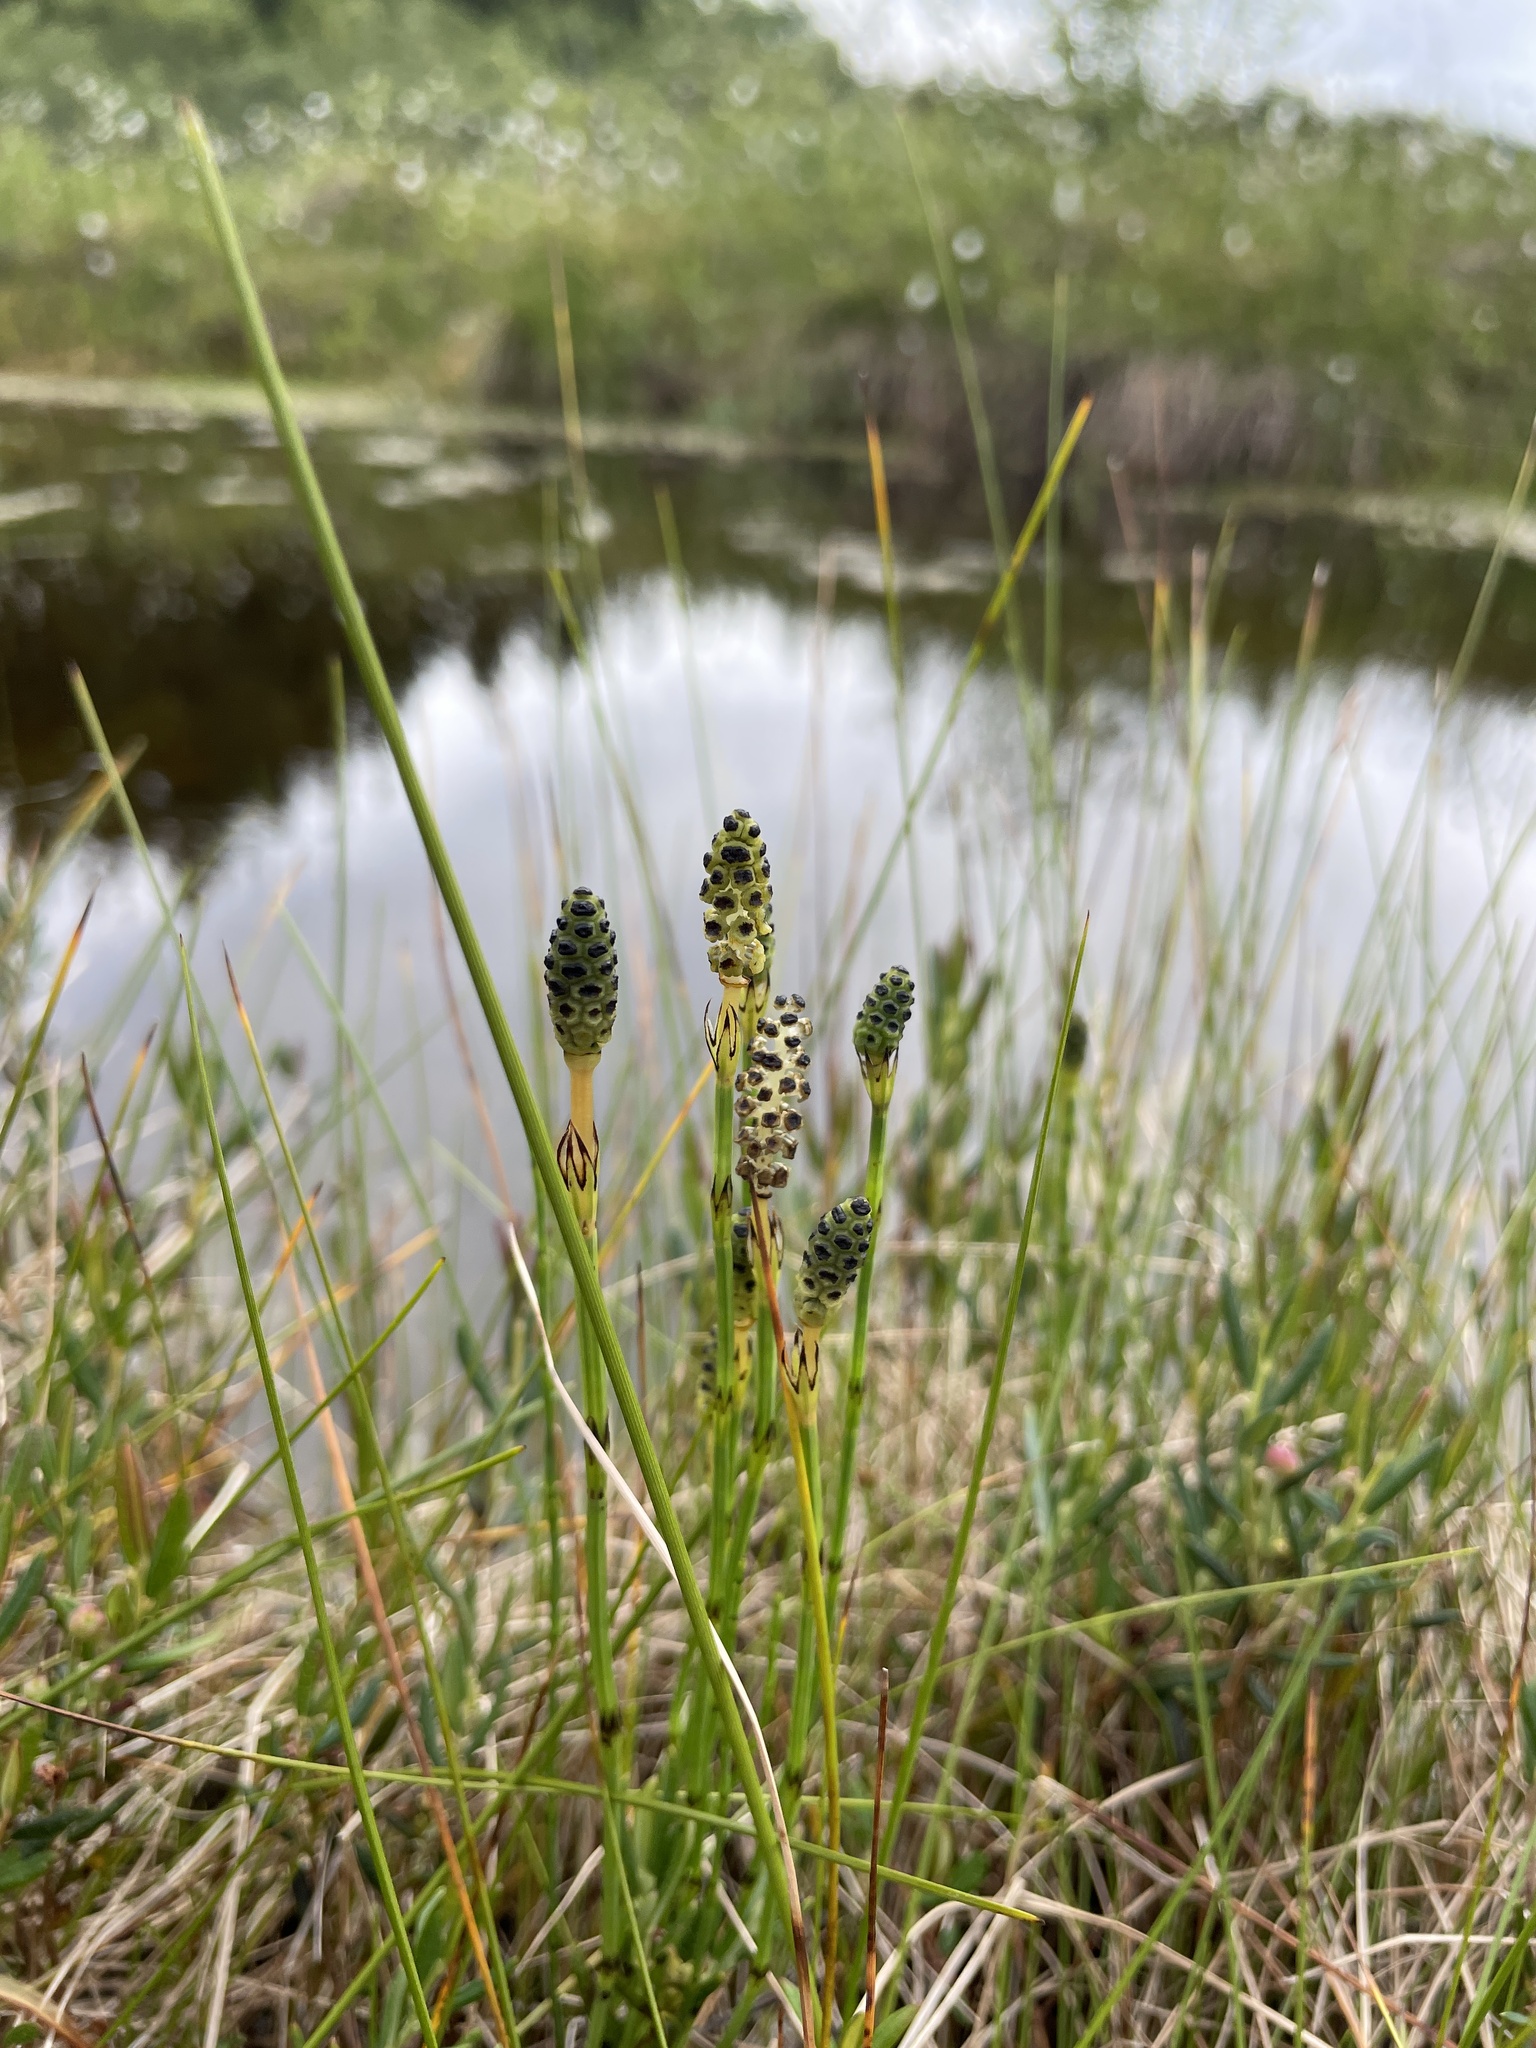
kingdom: Plantae
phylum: Tracheophyta
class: Polypodiopsida
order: Equisetales
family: Equisetaceae
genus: Equisetum
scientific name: Equisetum palustre
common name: Marsh horsetail
